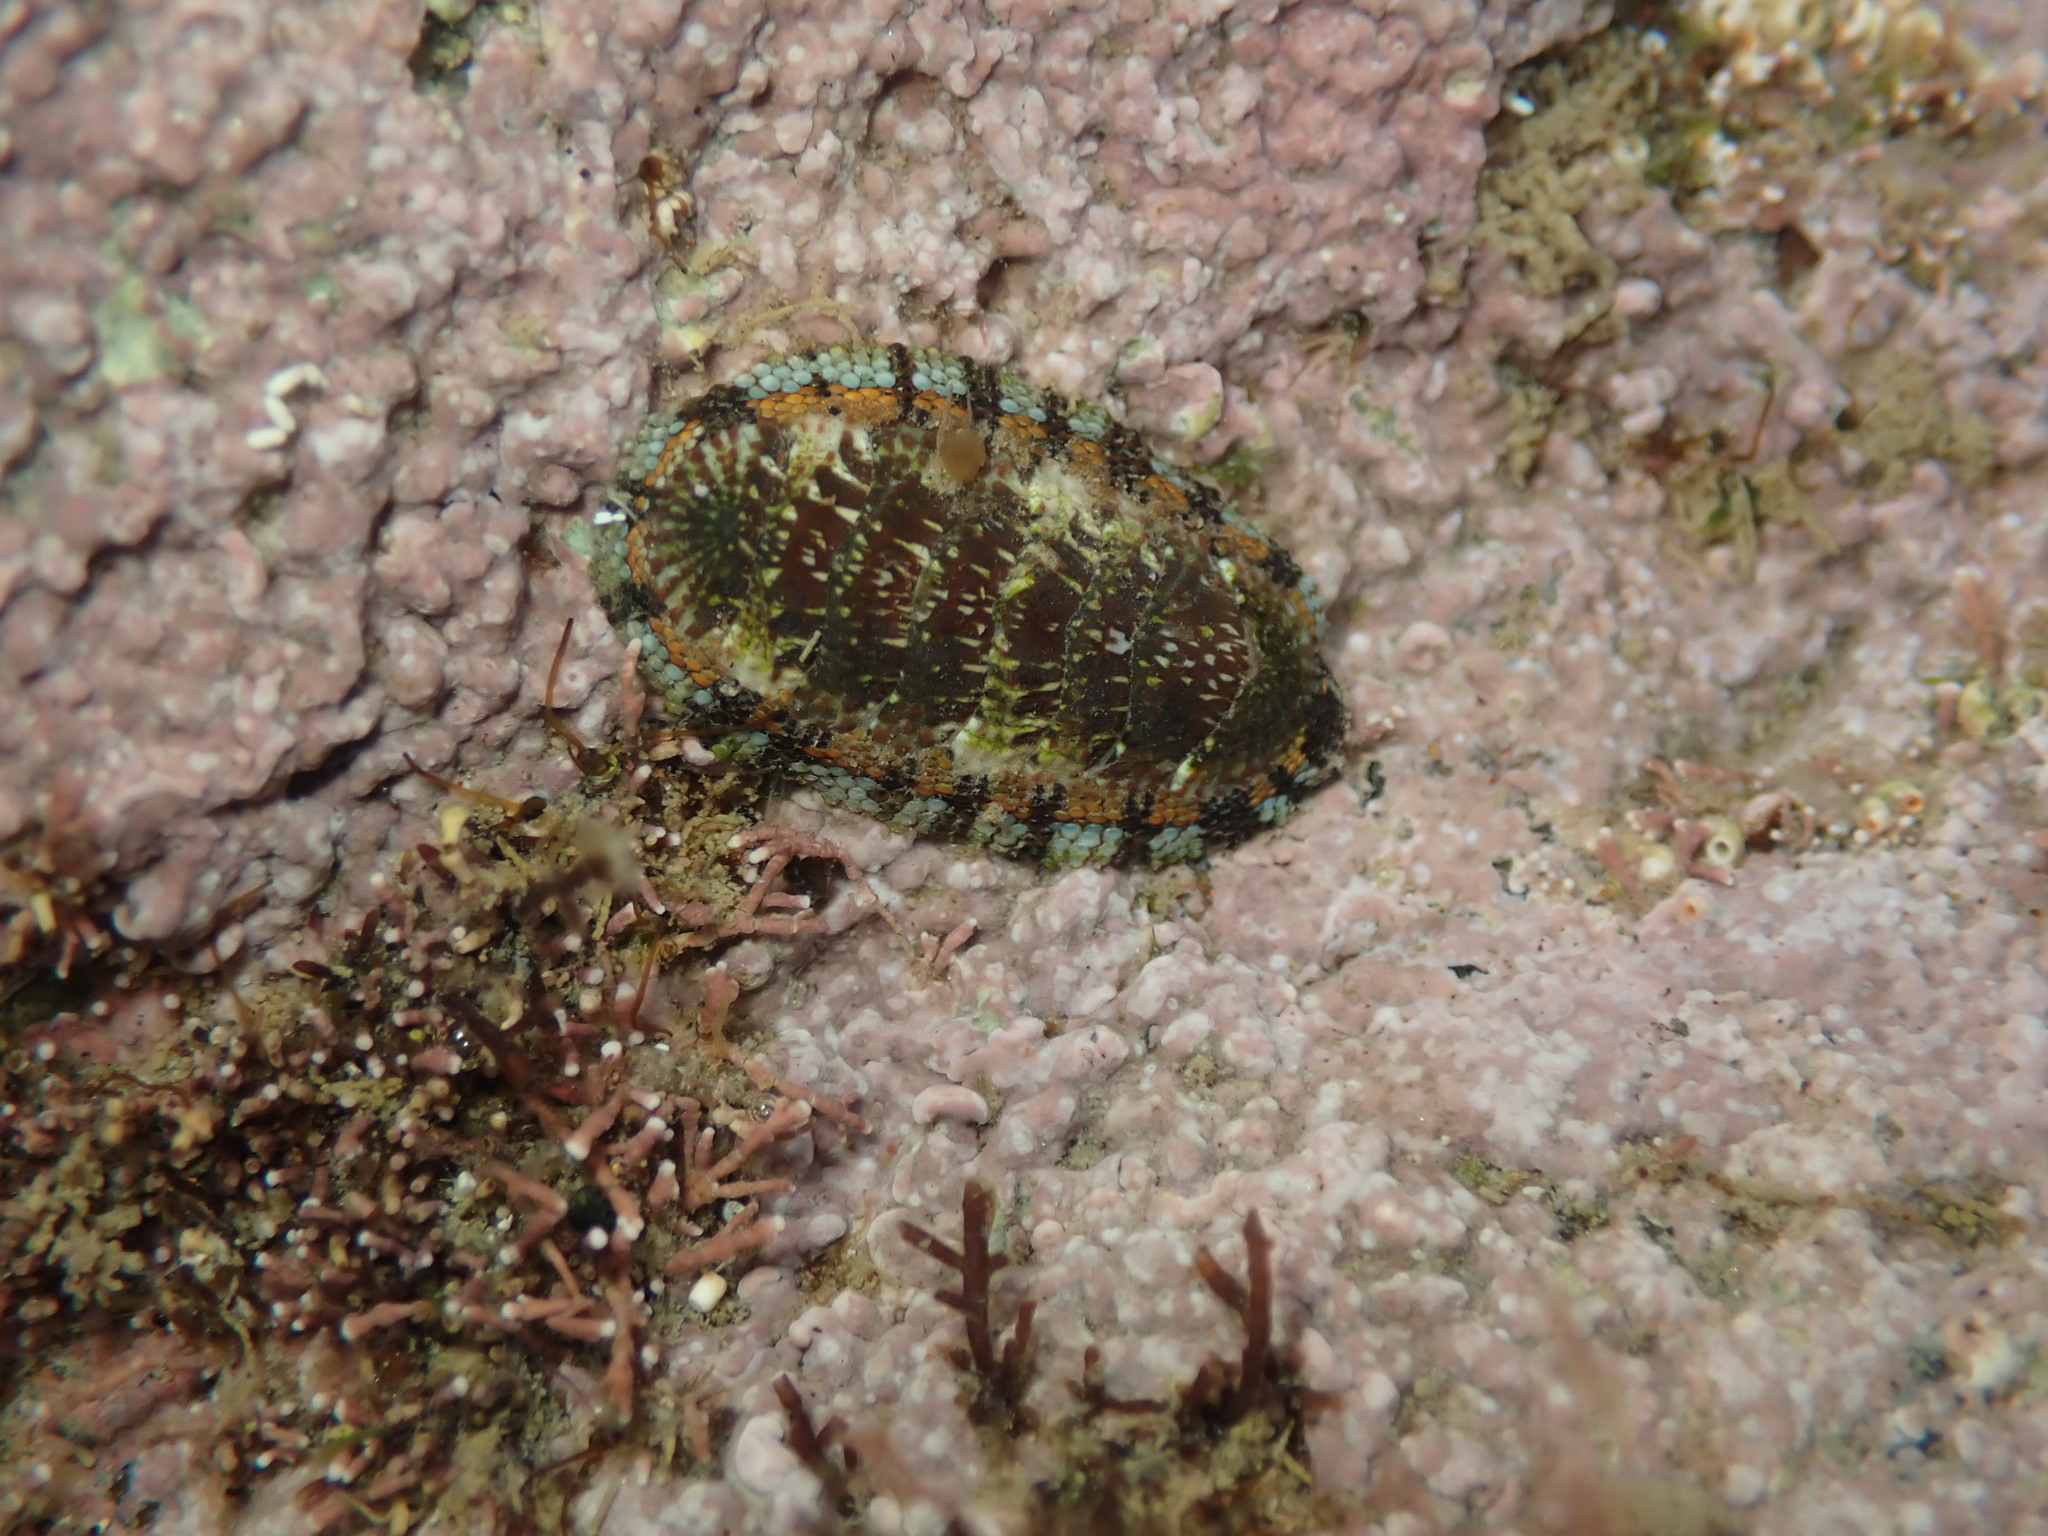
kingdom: Animalia
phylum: Mollusca
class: Polyplacophora
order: Chitonida
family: Chitonidae
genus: Sypharochiton
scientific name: Sypharochiton sinclairi
